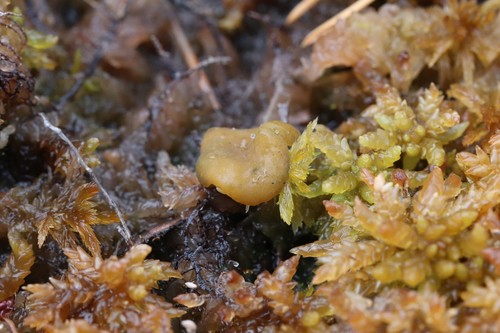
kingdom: Fungi
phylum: Ascomycota
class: Leotiomycetes
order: Helotiales
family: Gelatinodiscaceae
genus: Ascocoryne
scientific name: Ascocoryne turficola
